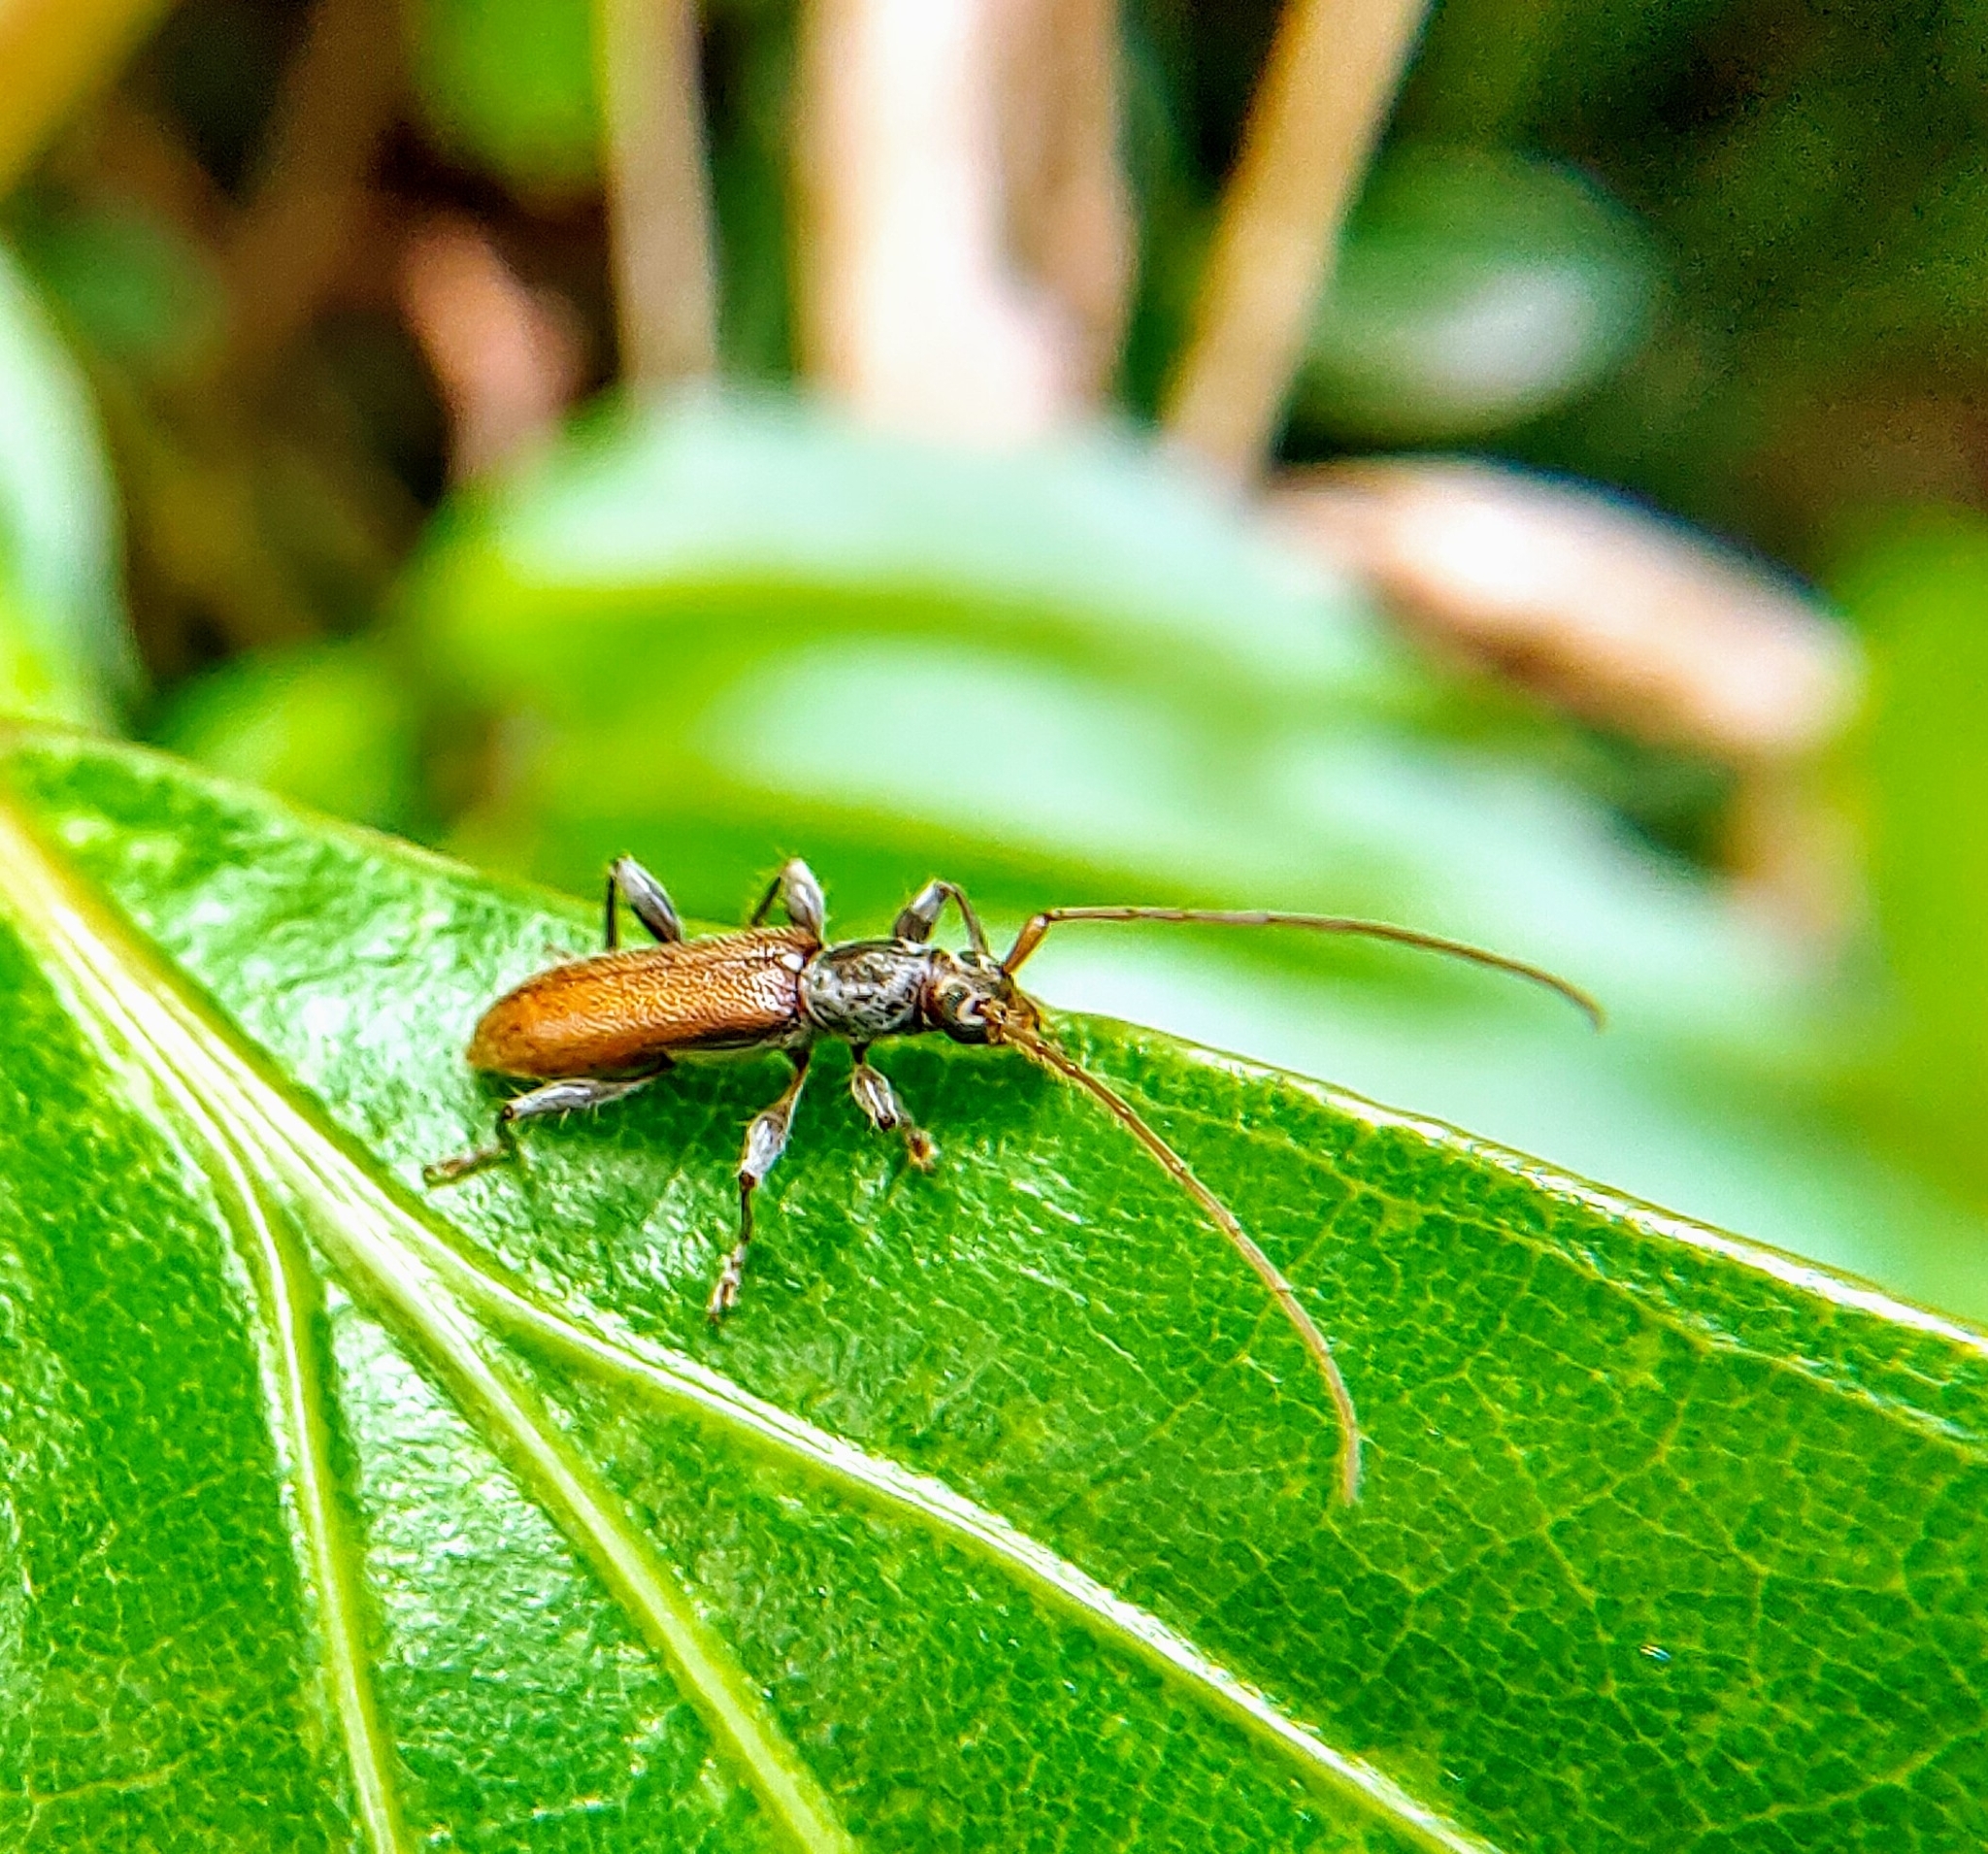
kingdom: Animalia
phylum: Arthropoda
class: Insecta
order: Coleoptera
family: Cerambycidae
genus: Ceresium
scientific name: Ceresium zeylanicum
